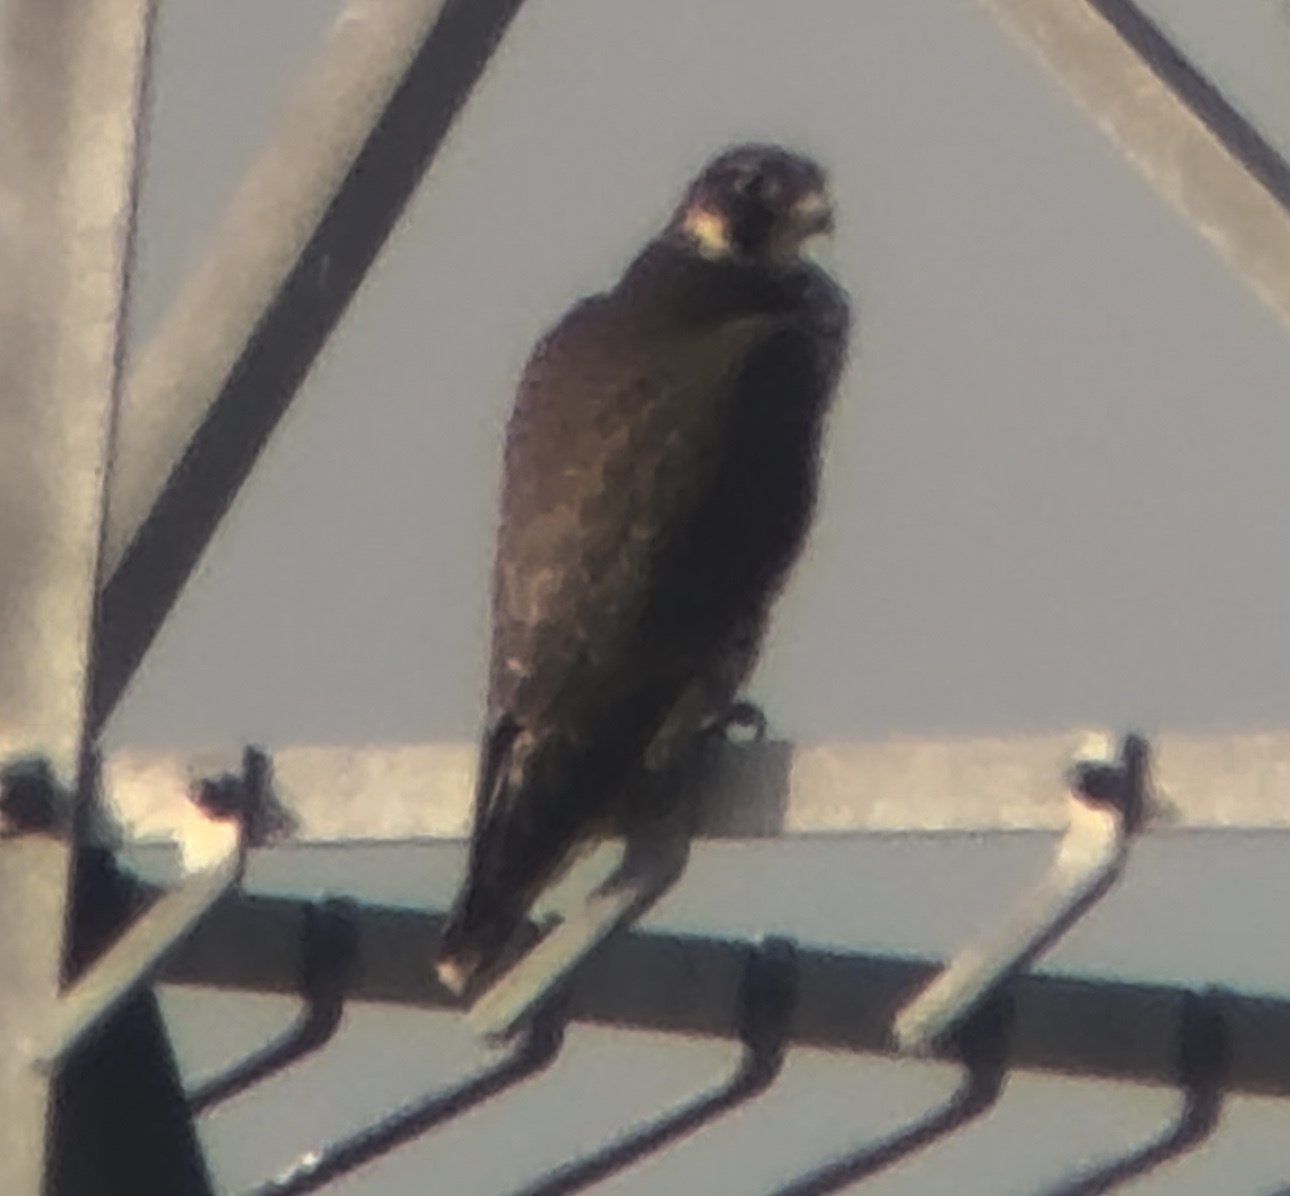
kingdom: Animalia
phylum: Chordata
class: Aves
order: Falconiformes
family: Falconidae
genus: Falco
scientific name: Falco peregrinus
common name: Peregrine falcon
